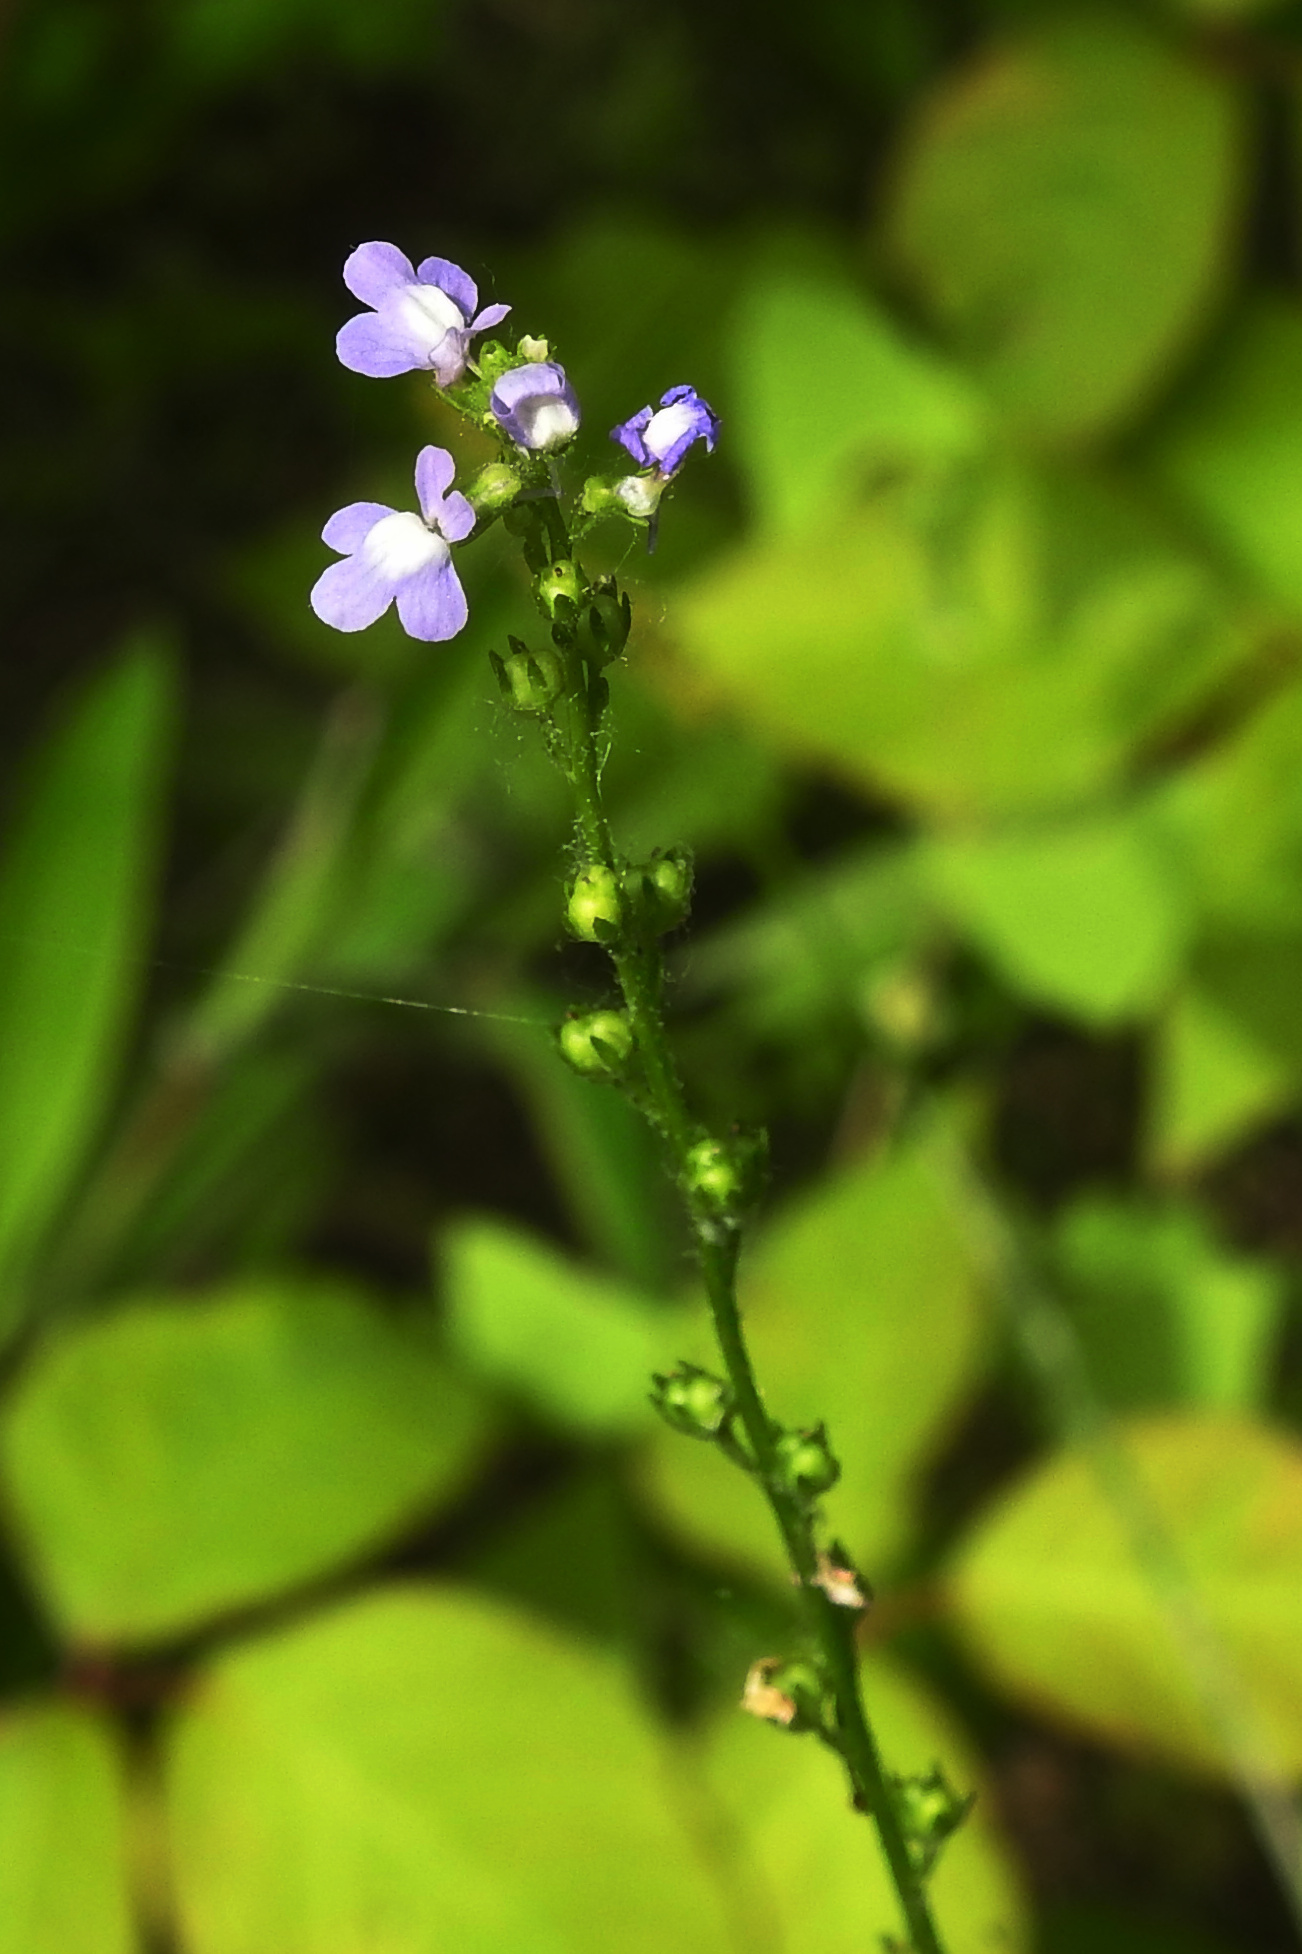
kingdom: Plantae
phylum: Tracheophyta
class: Magnoliopsida
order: Lamiales
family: Plantaginaceae
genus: Nuttallanthus
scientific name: Nuttallanthus canadensis
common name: Blue toadflax
